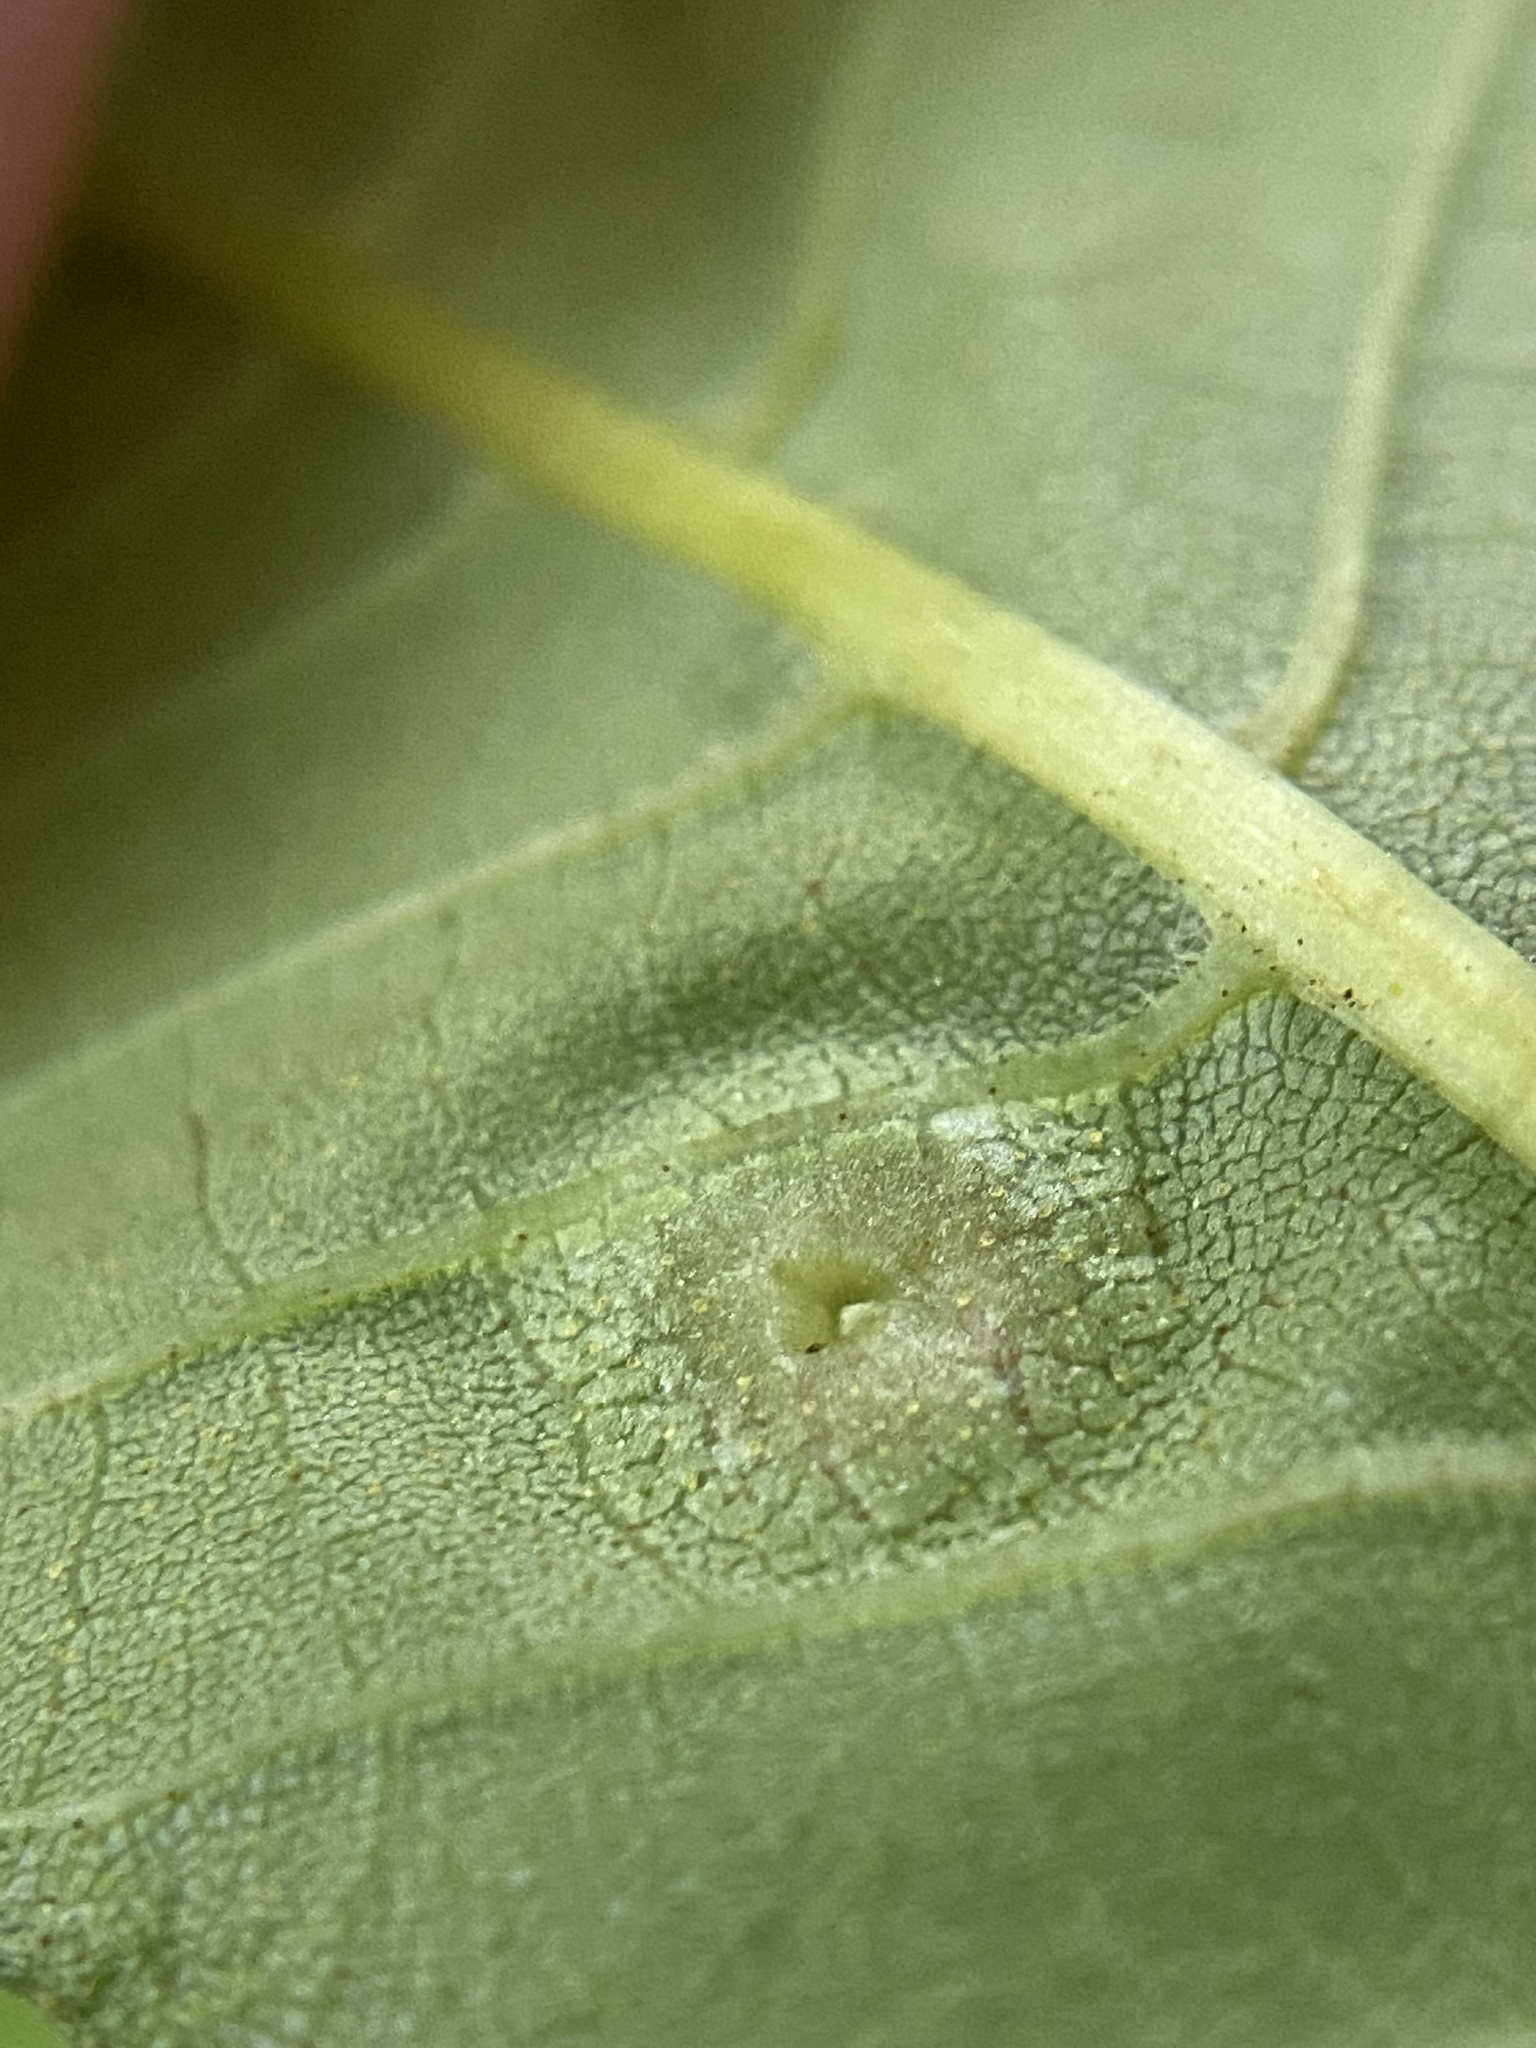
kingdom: Animalia
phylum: Arthropoda
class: Insecta
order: Hemiptera
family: Phylloxeridae
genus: Phylloxera
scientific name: Phylloxera foveola
